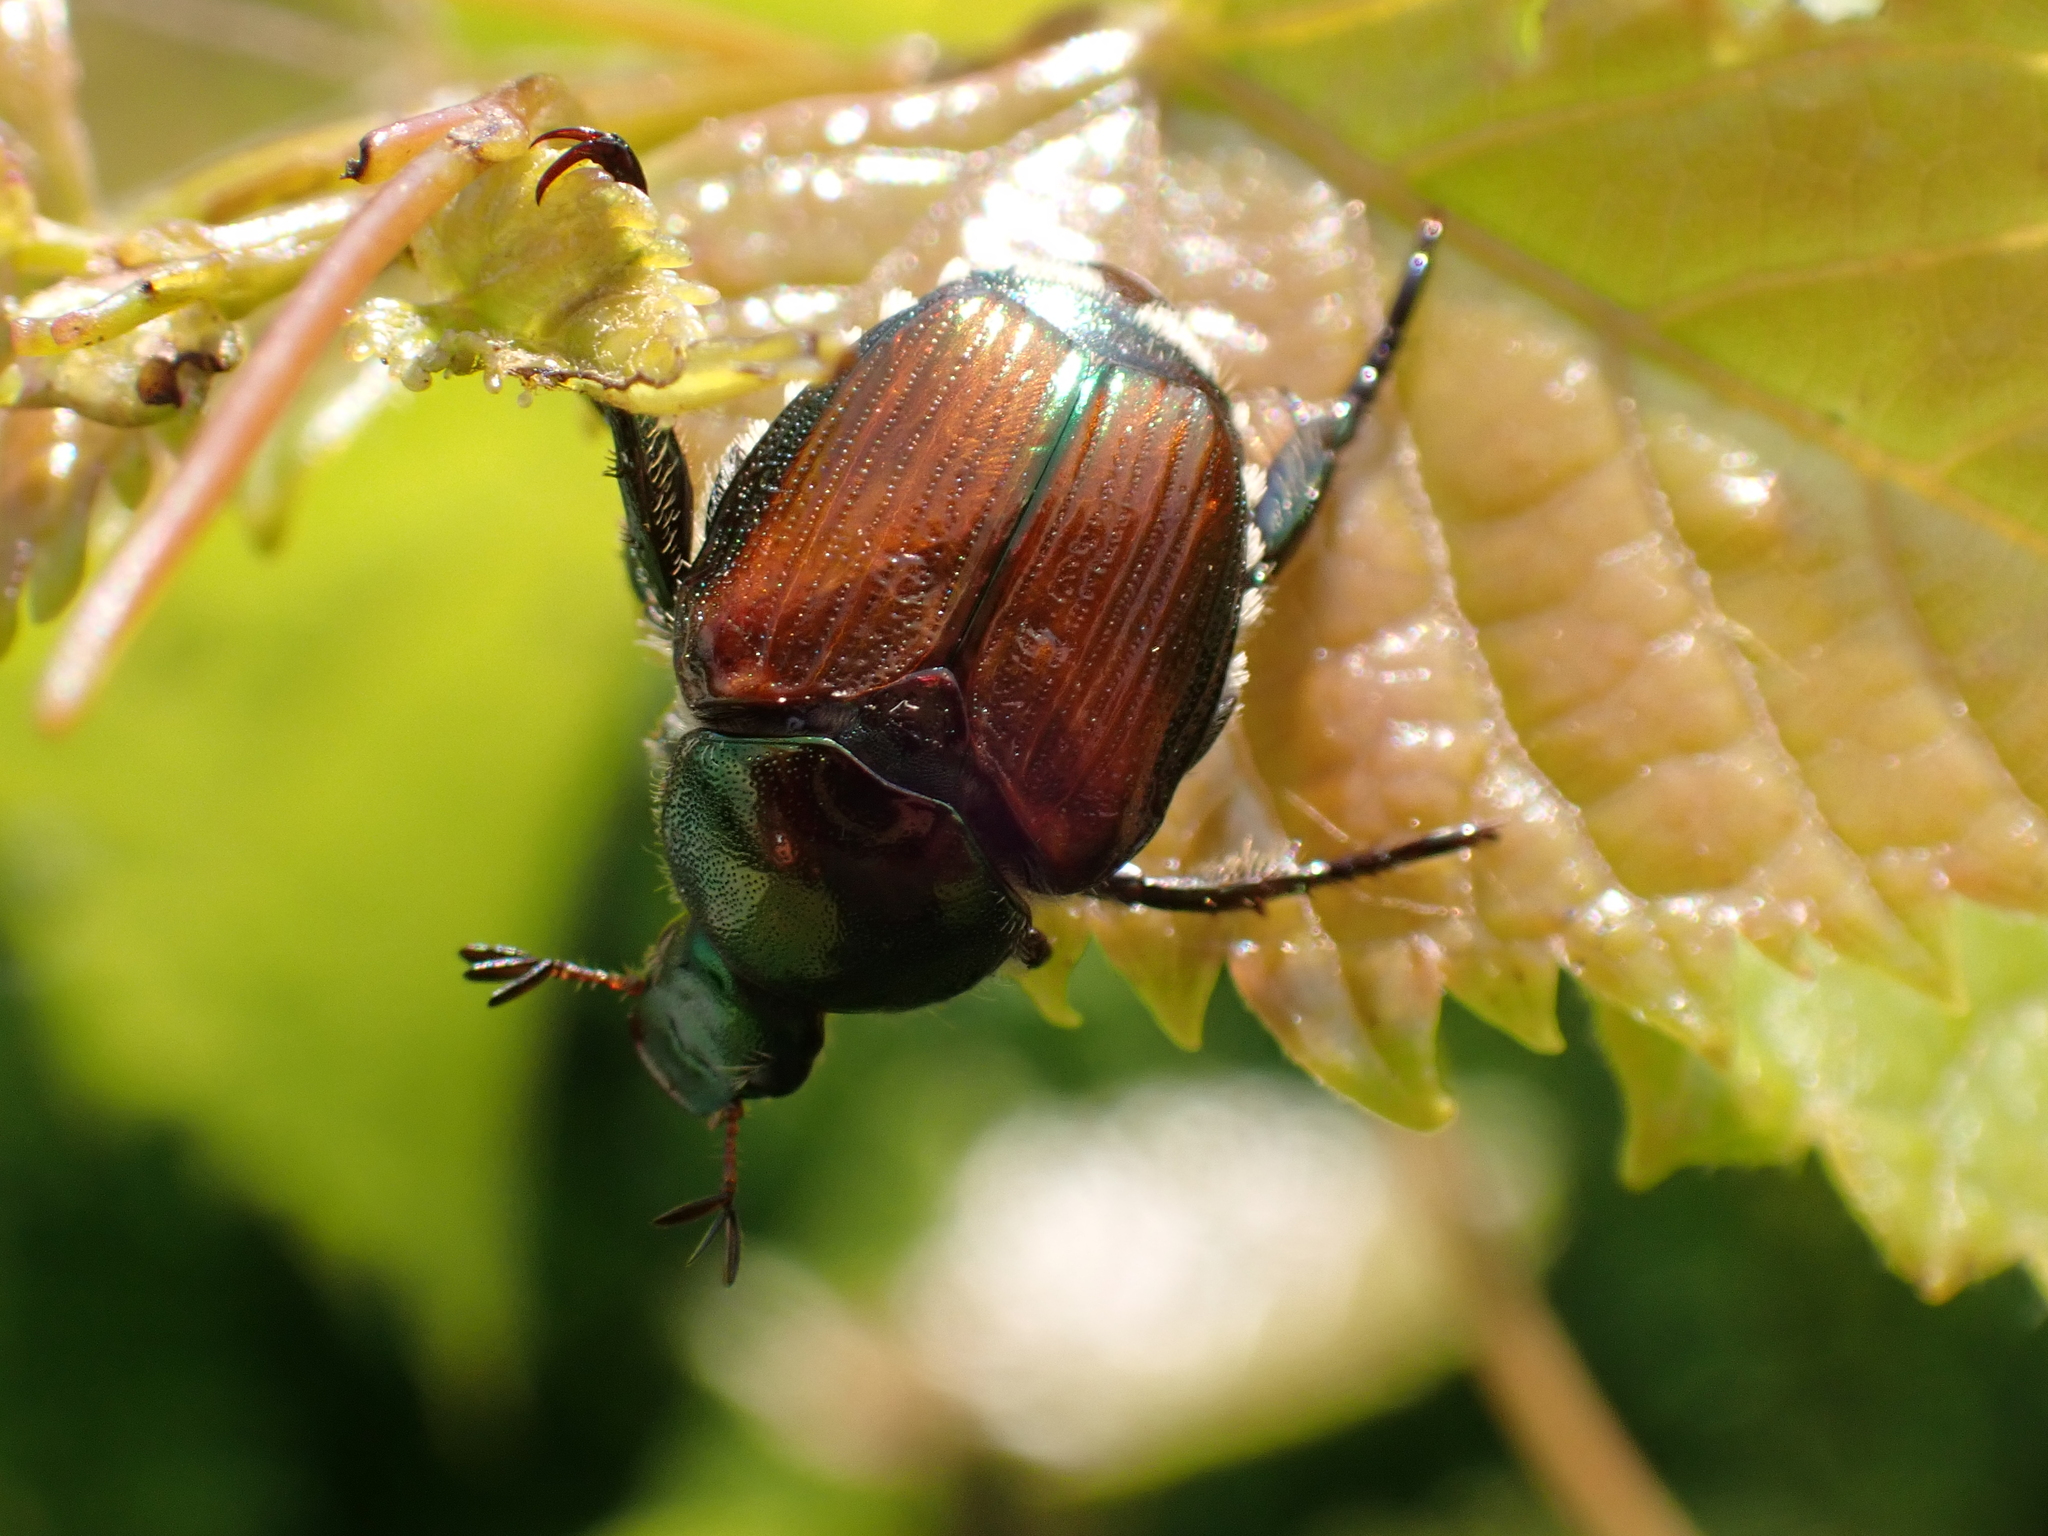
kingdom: Animalia
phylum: Arthropoda
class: Insecta
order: Coleoptera
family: Scarabaeidae
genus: Popillia
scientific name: Popillia japonica
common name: Japanese beetle
